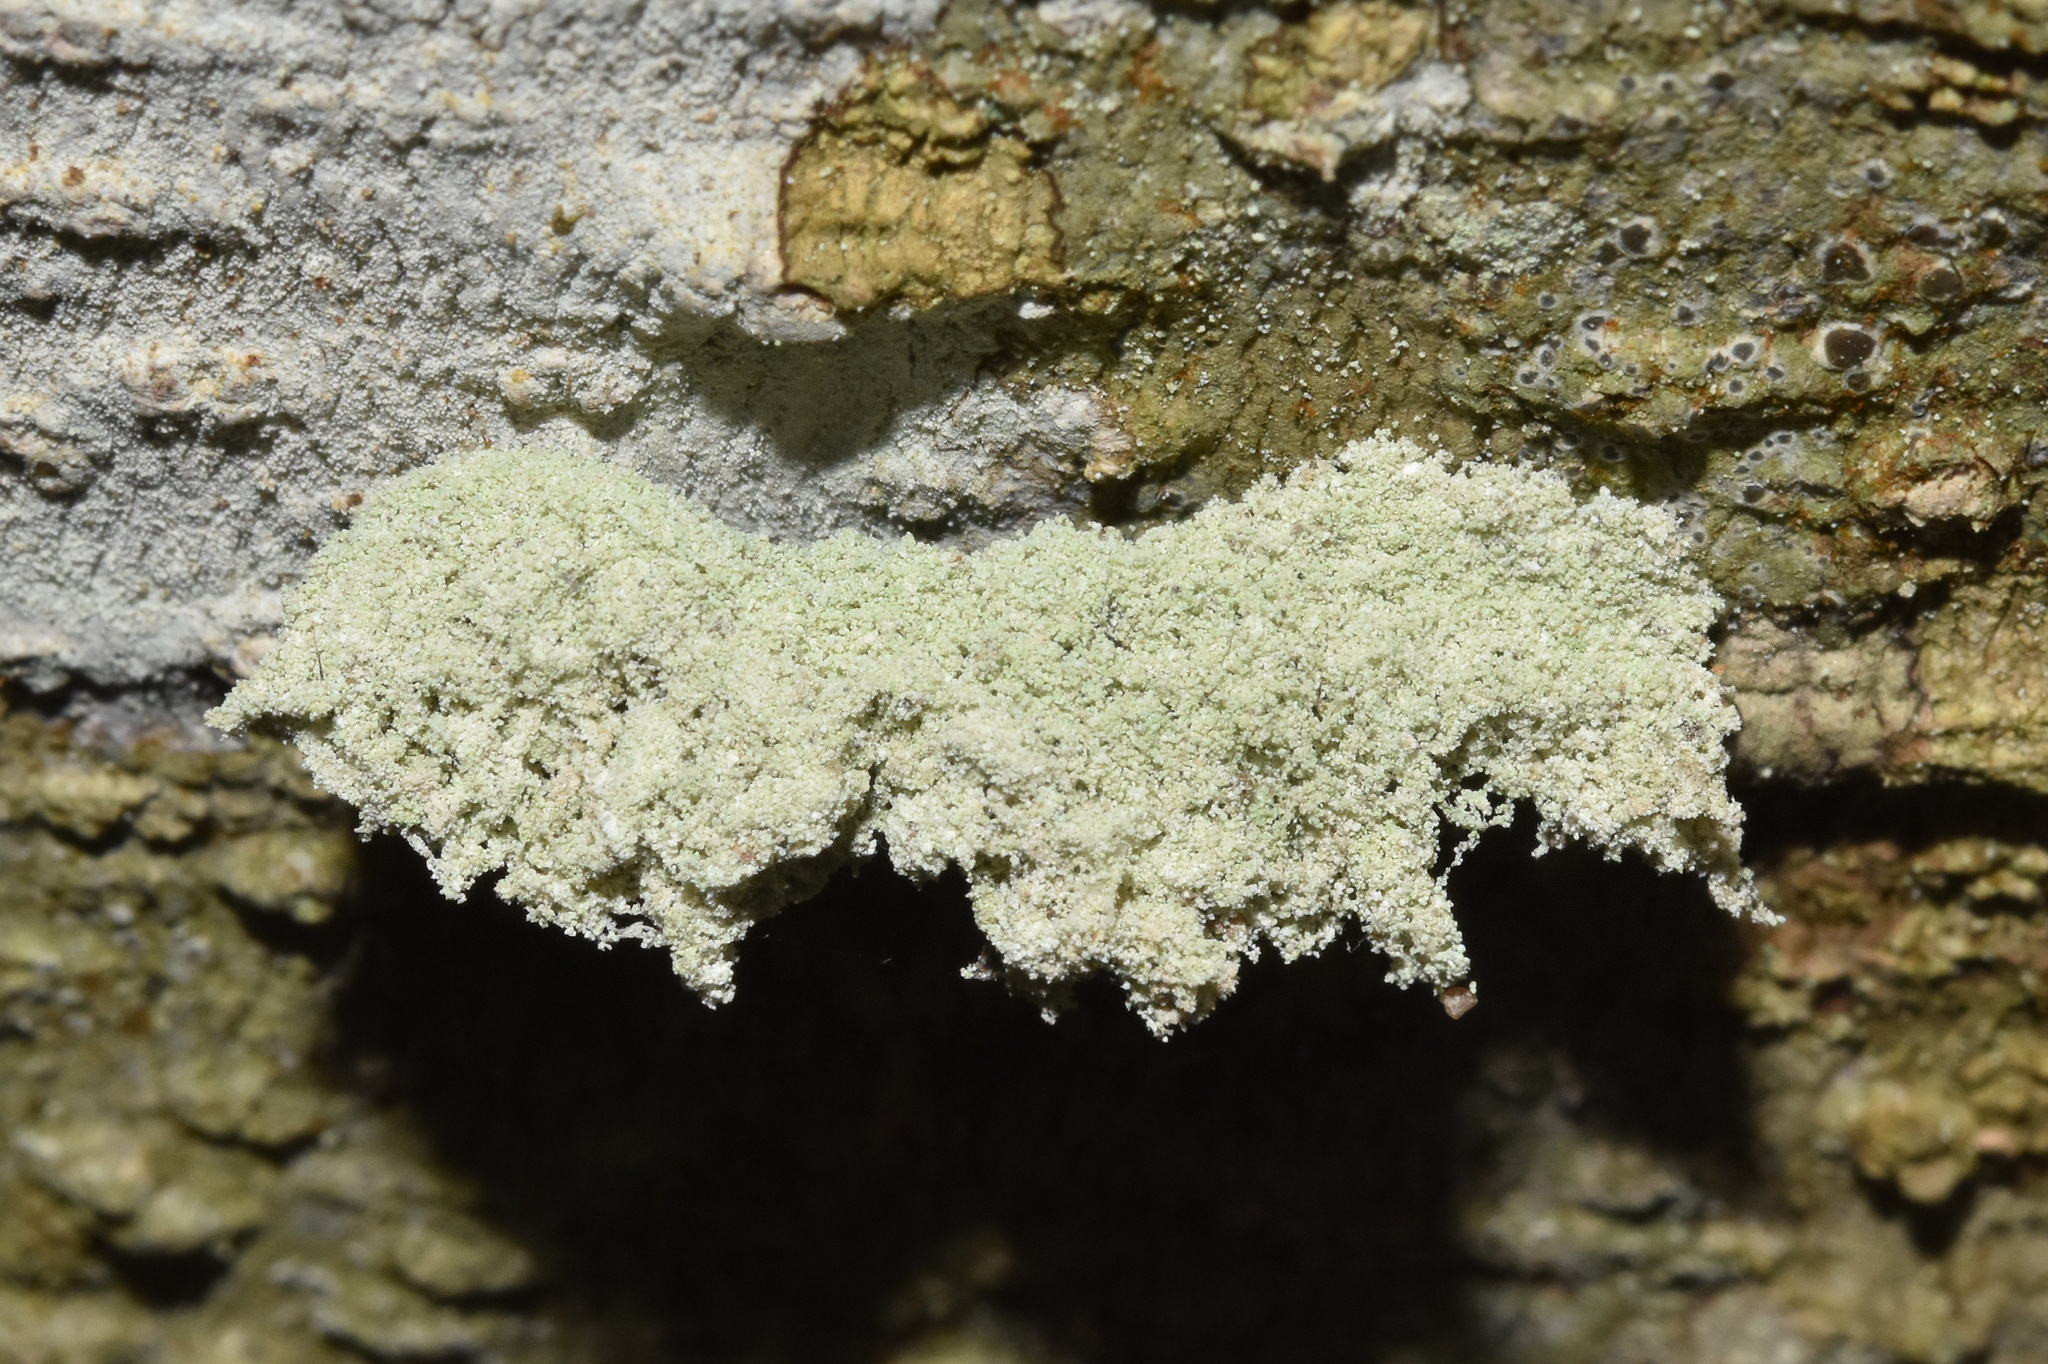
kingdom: Animalia
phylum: Arthropoda
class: Insecta
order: Lepidoptera
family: Noctuidae
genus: Eublemmistis
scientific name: Eublemmistis chlorozonea
